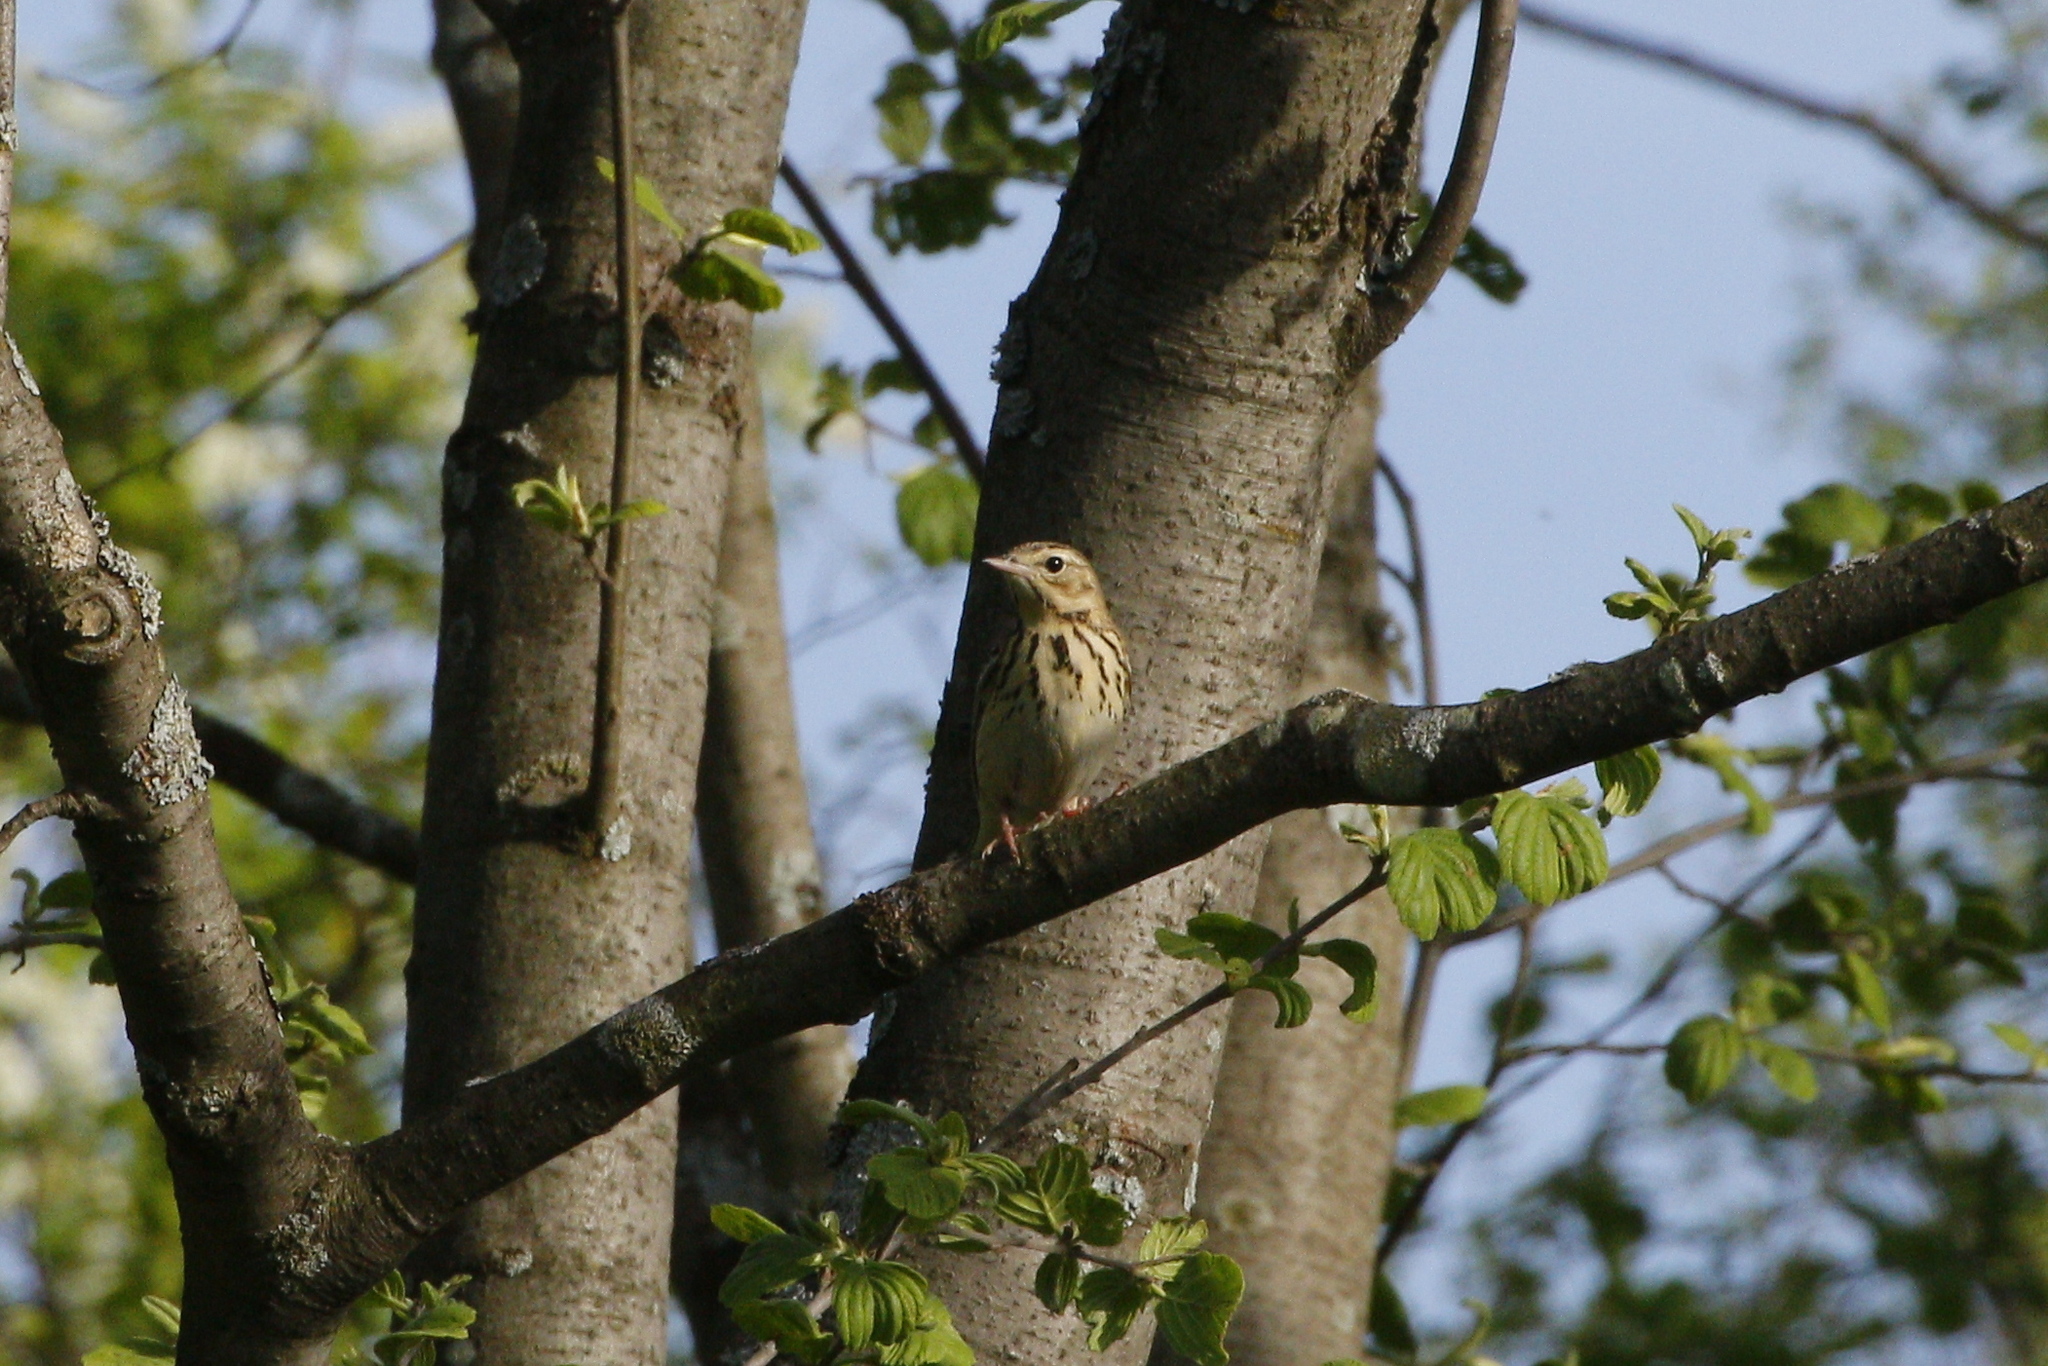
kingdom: Animalia
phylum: Chordata
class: Aves
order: Passeriformes
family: Motacillidae
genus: Anthus
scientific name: Anthus trivialis
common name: Tree pipit
